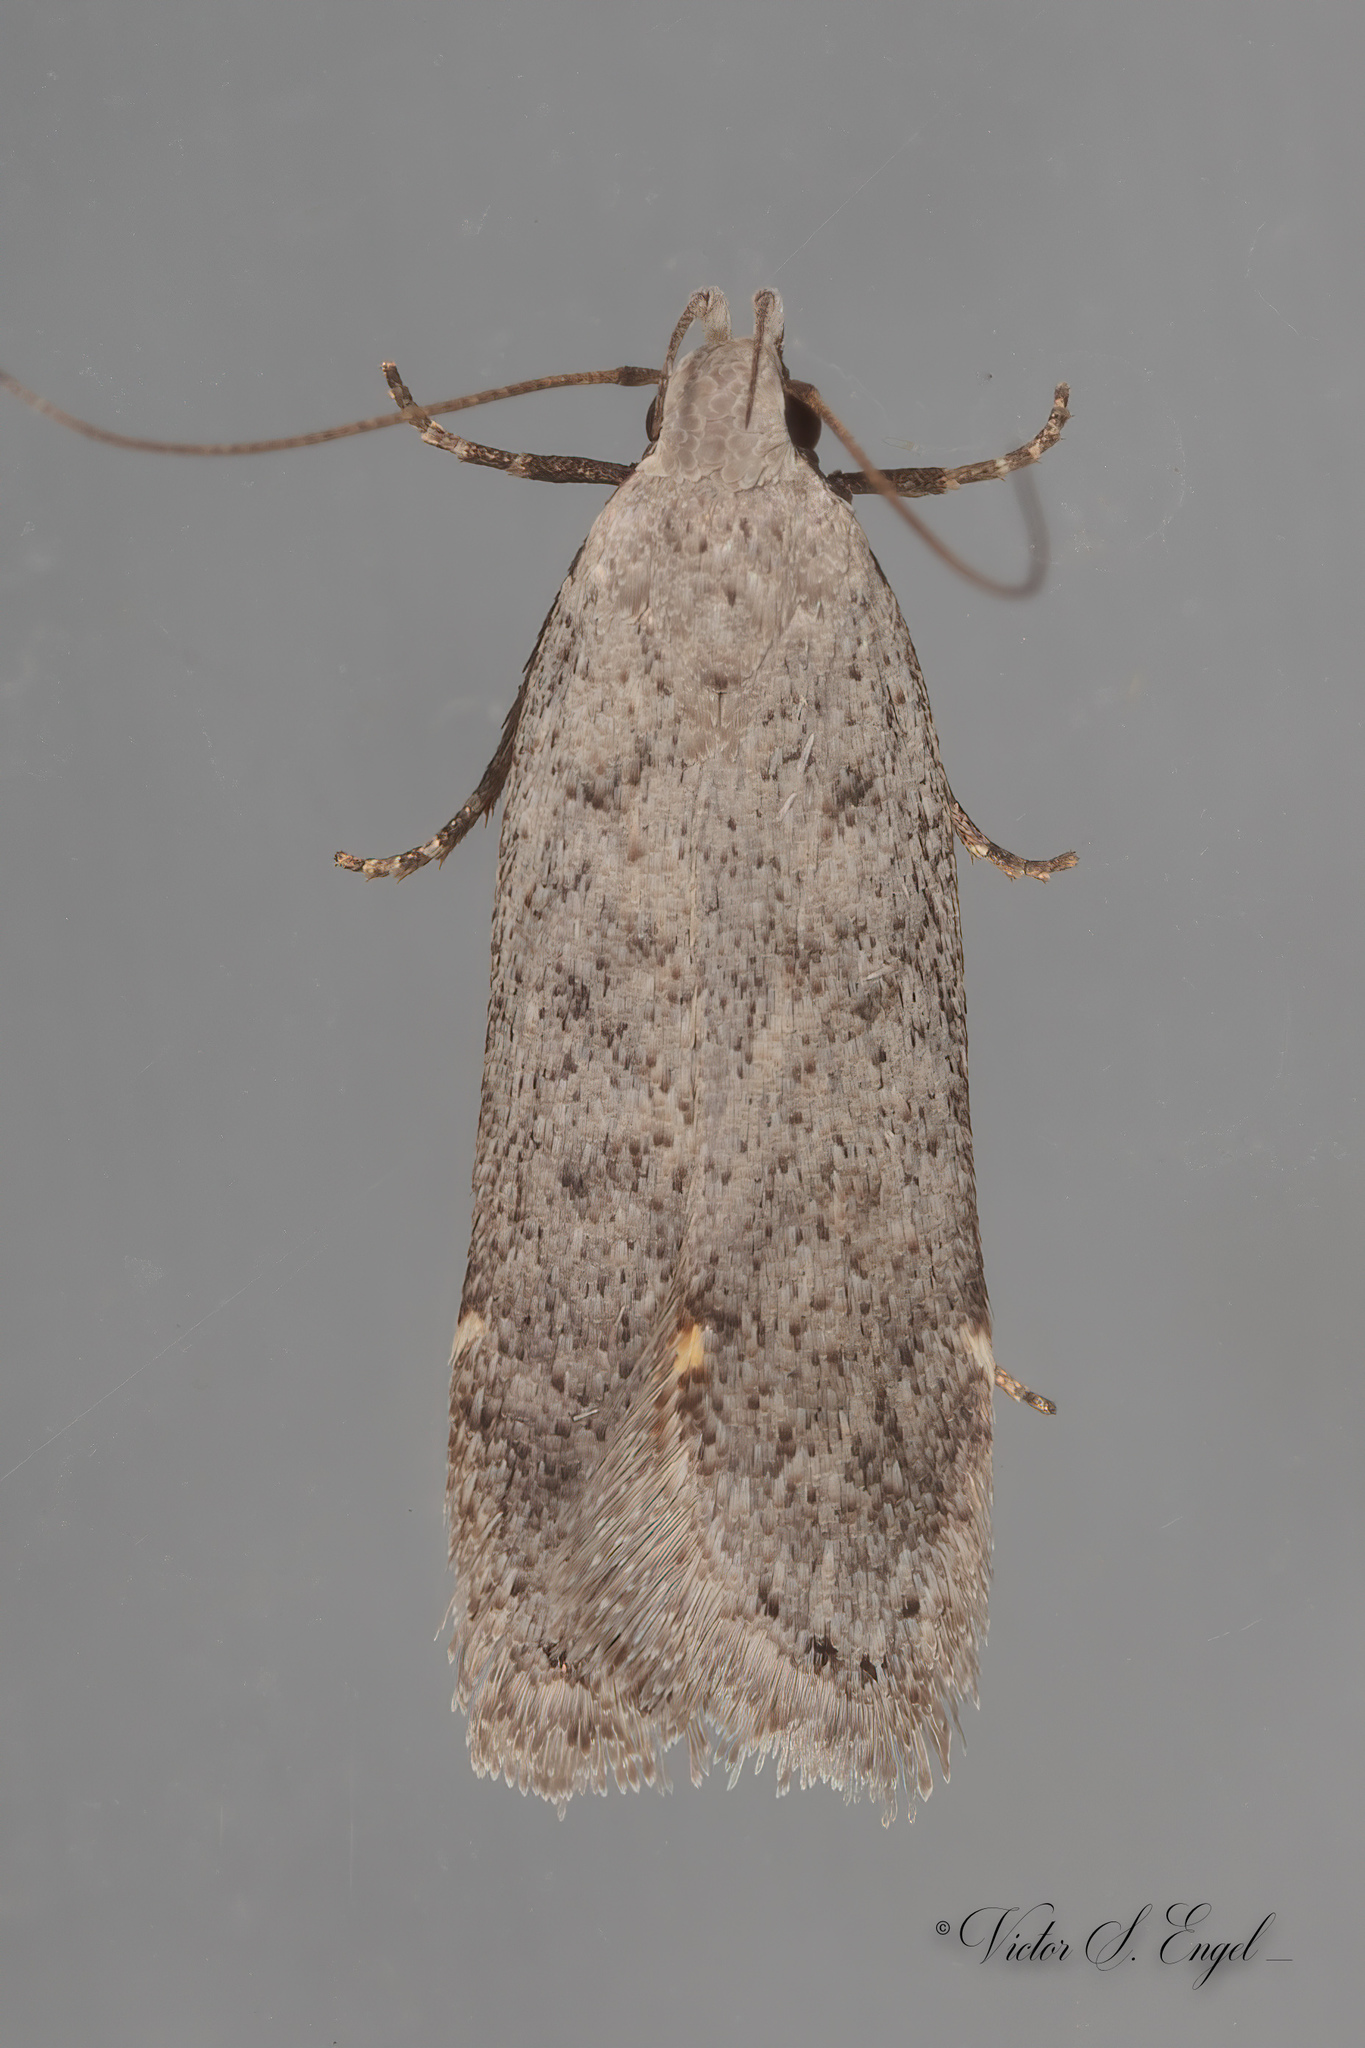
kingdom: Animalia
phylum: Arthropoda
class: Insecta
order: Lepidoptera
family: Gelechiidae
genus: Anacampsis
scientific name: Anacampsis comparanda
